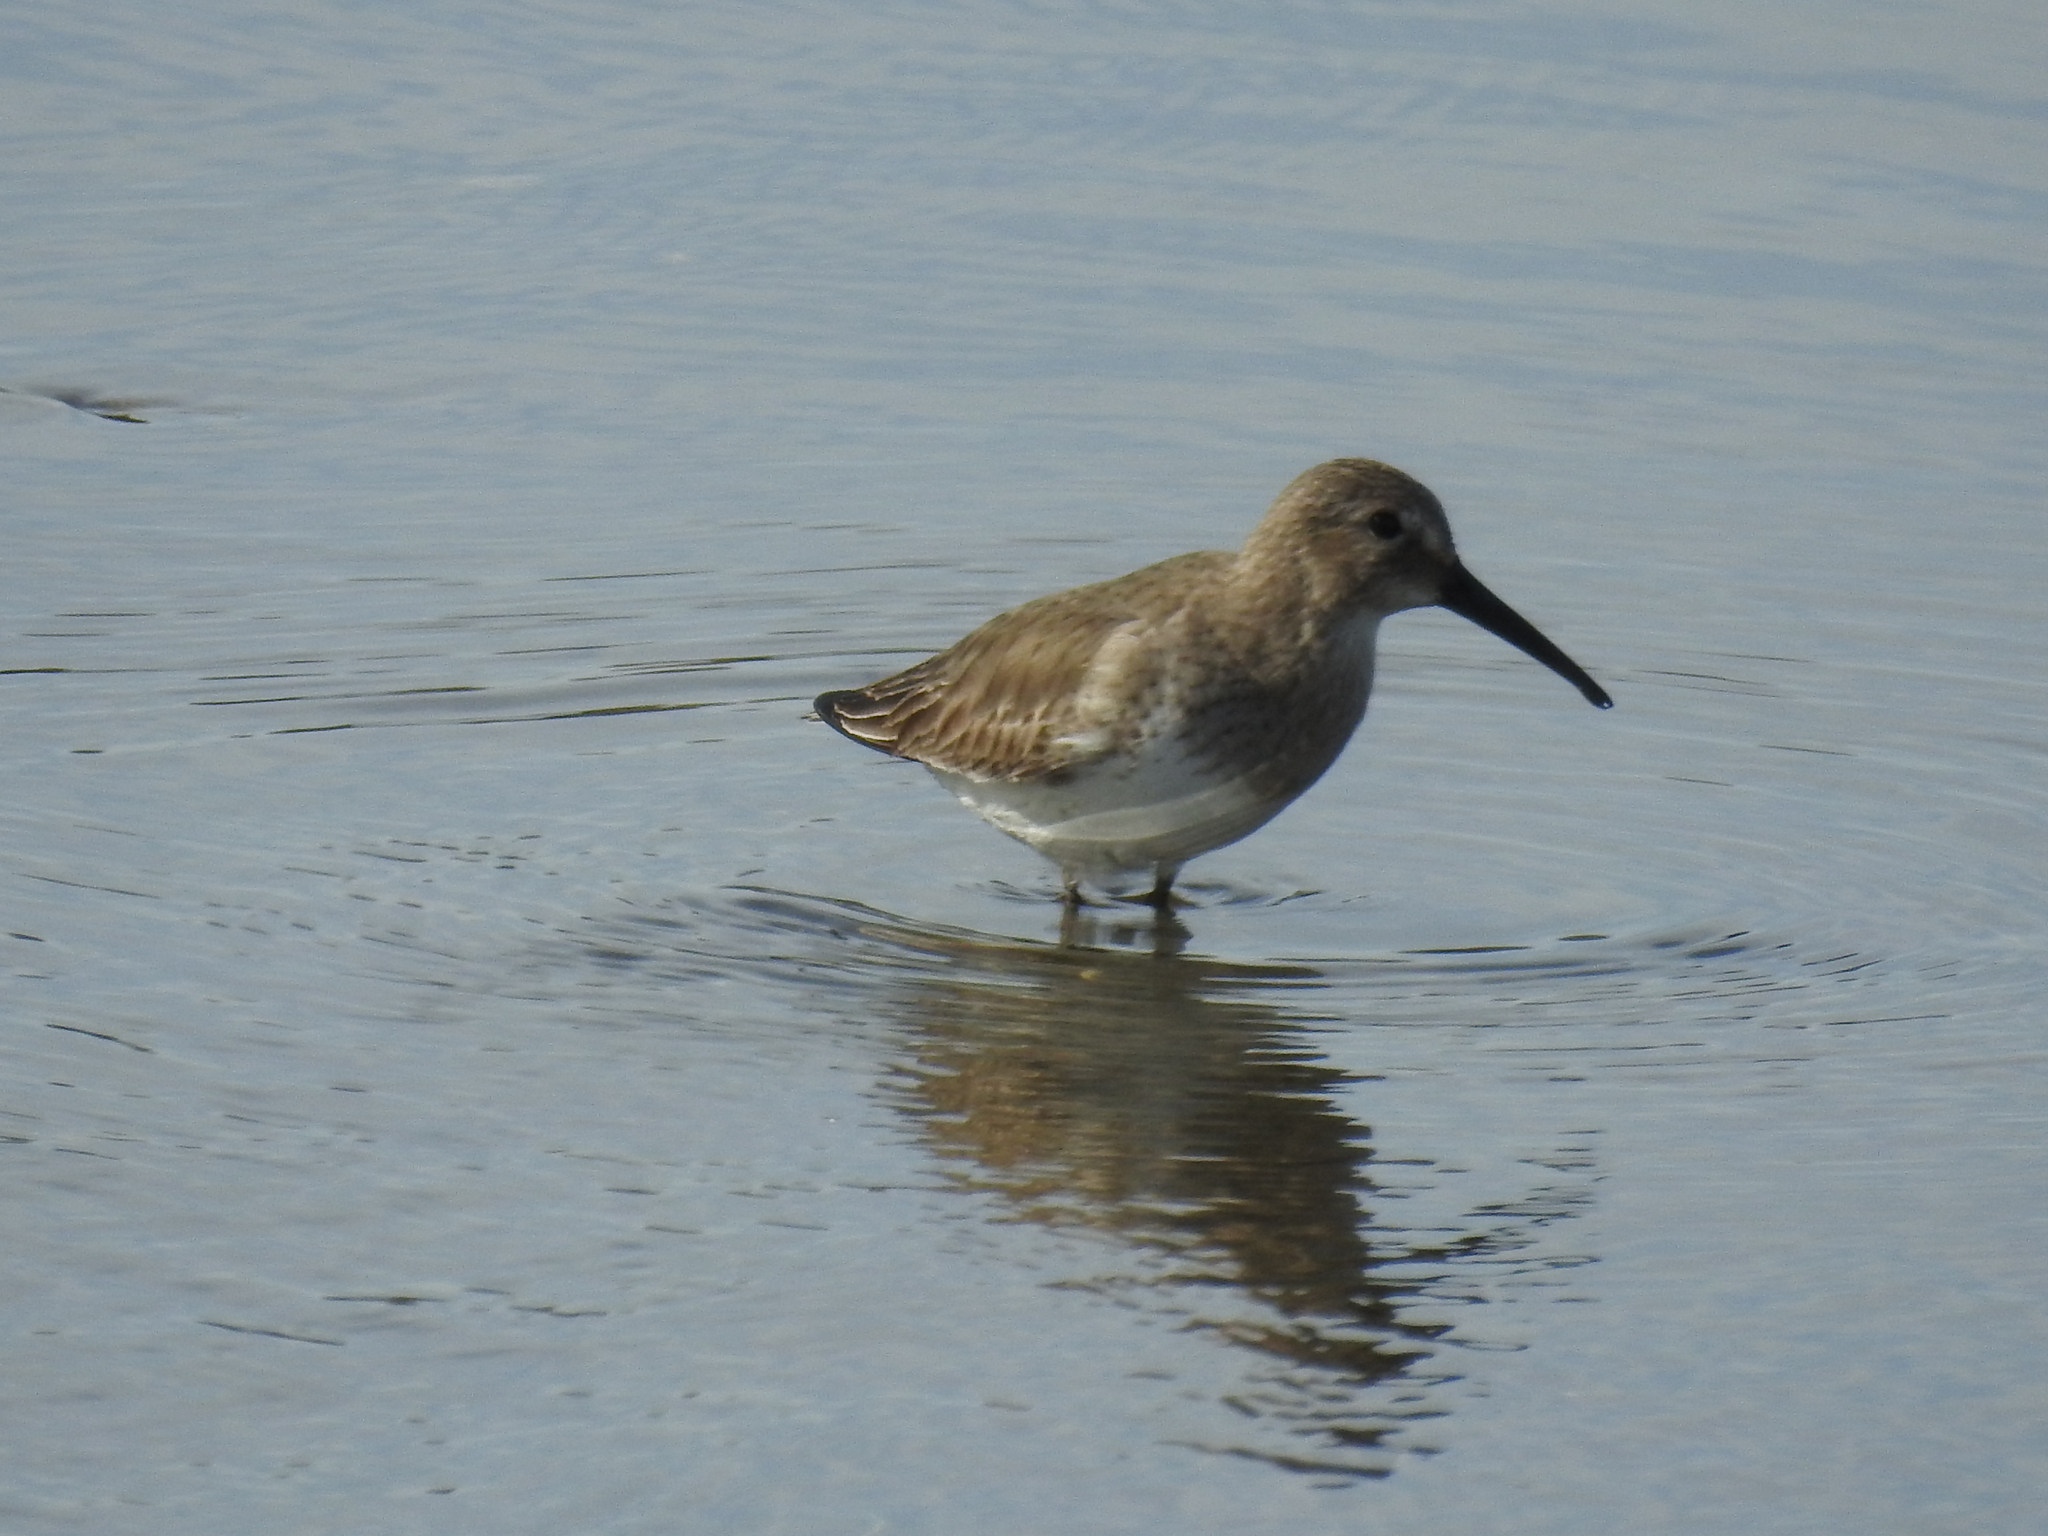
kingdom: Animalia
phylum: Chordata
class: Aves
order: Charadriiformes
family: Scolopacidae
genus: Calidris
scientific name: Calidris alpina
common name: Dunlin
